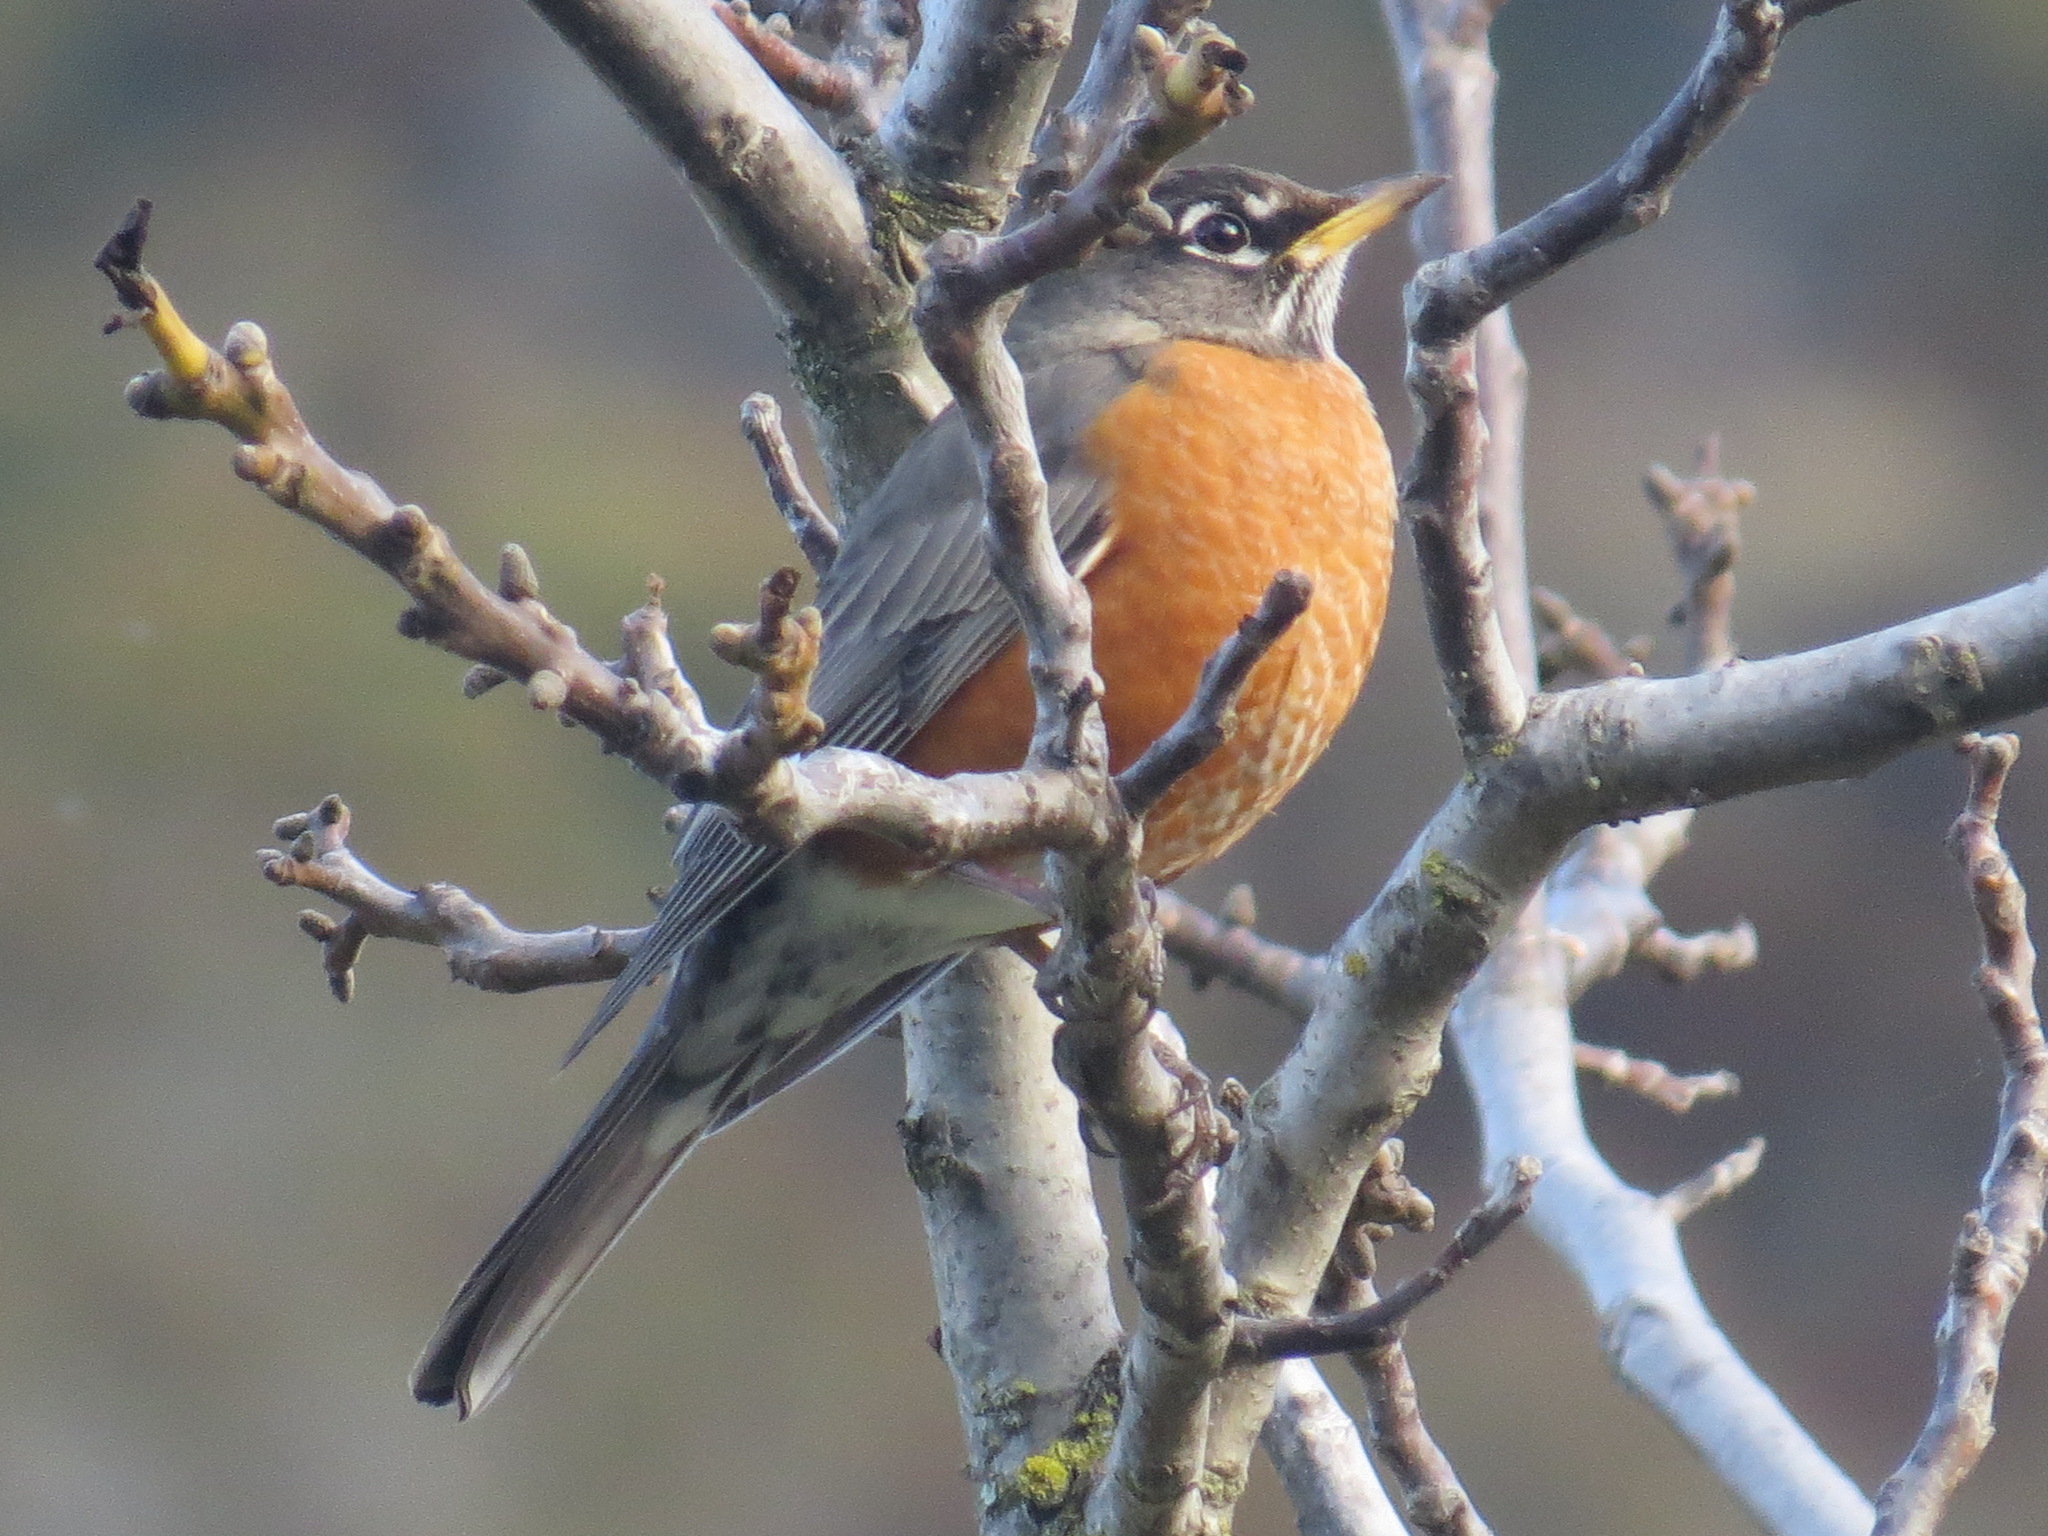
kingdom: Animalia
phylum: Chordata
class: Aves
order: Passeriformes
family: Turdidae
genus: Turdus
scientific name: Turdus migratorius
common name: American robin
